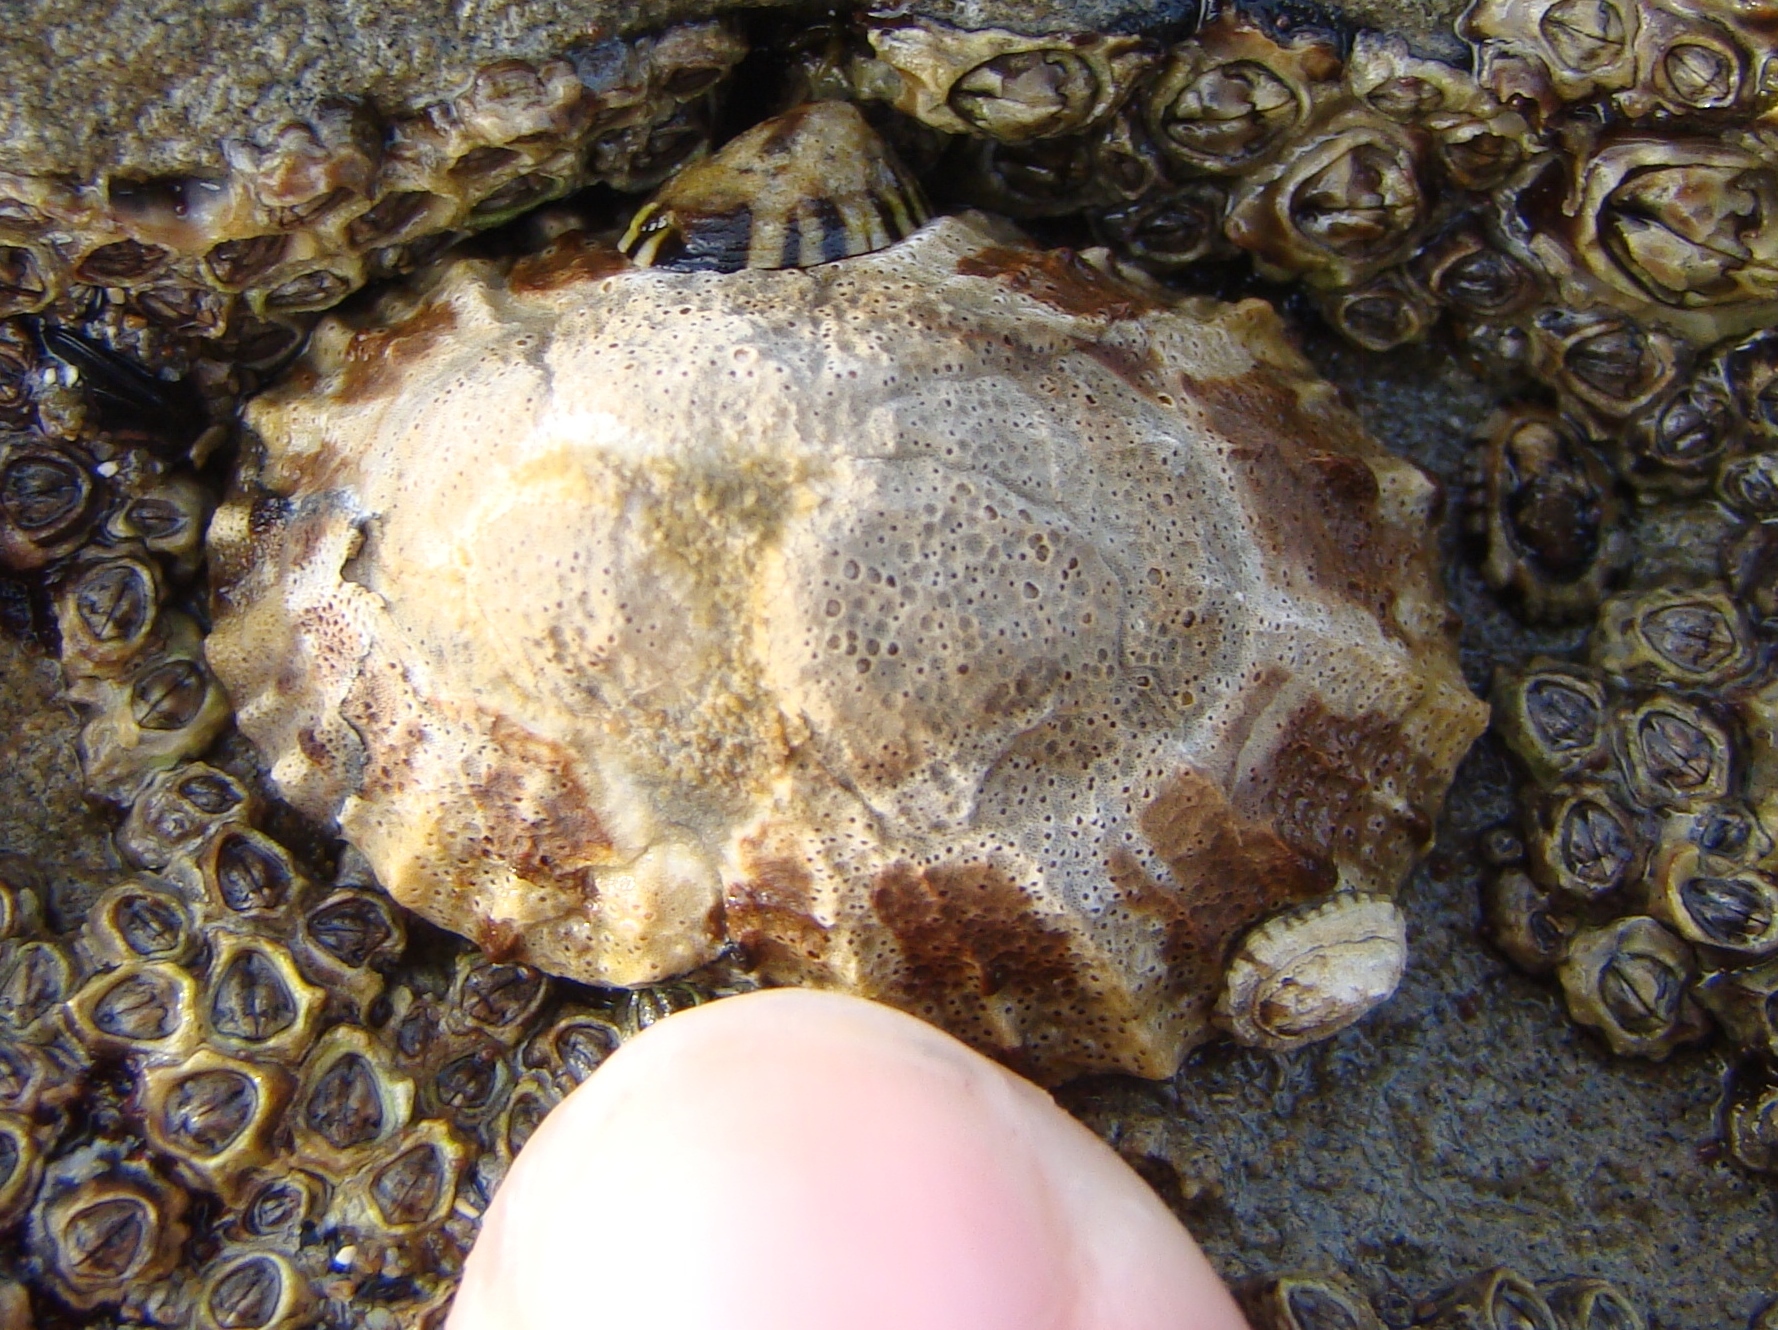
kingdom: Animalia
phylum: Mollusca
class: Gastropoda
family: Nacellidae
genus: Cellana
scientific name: Cellana ornata
